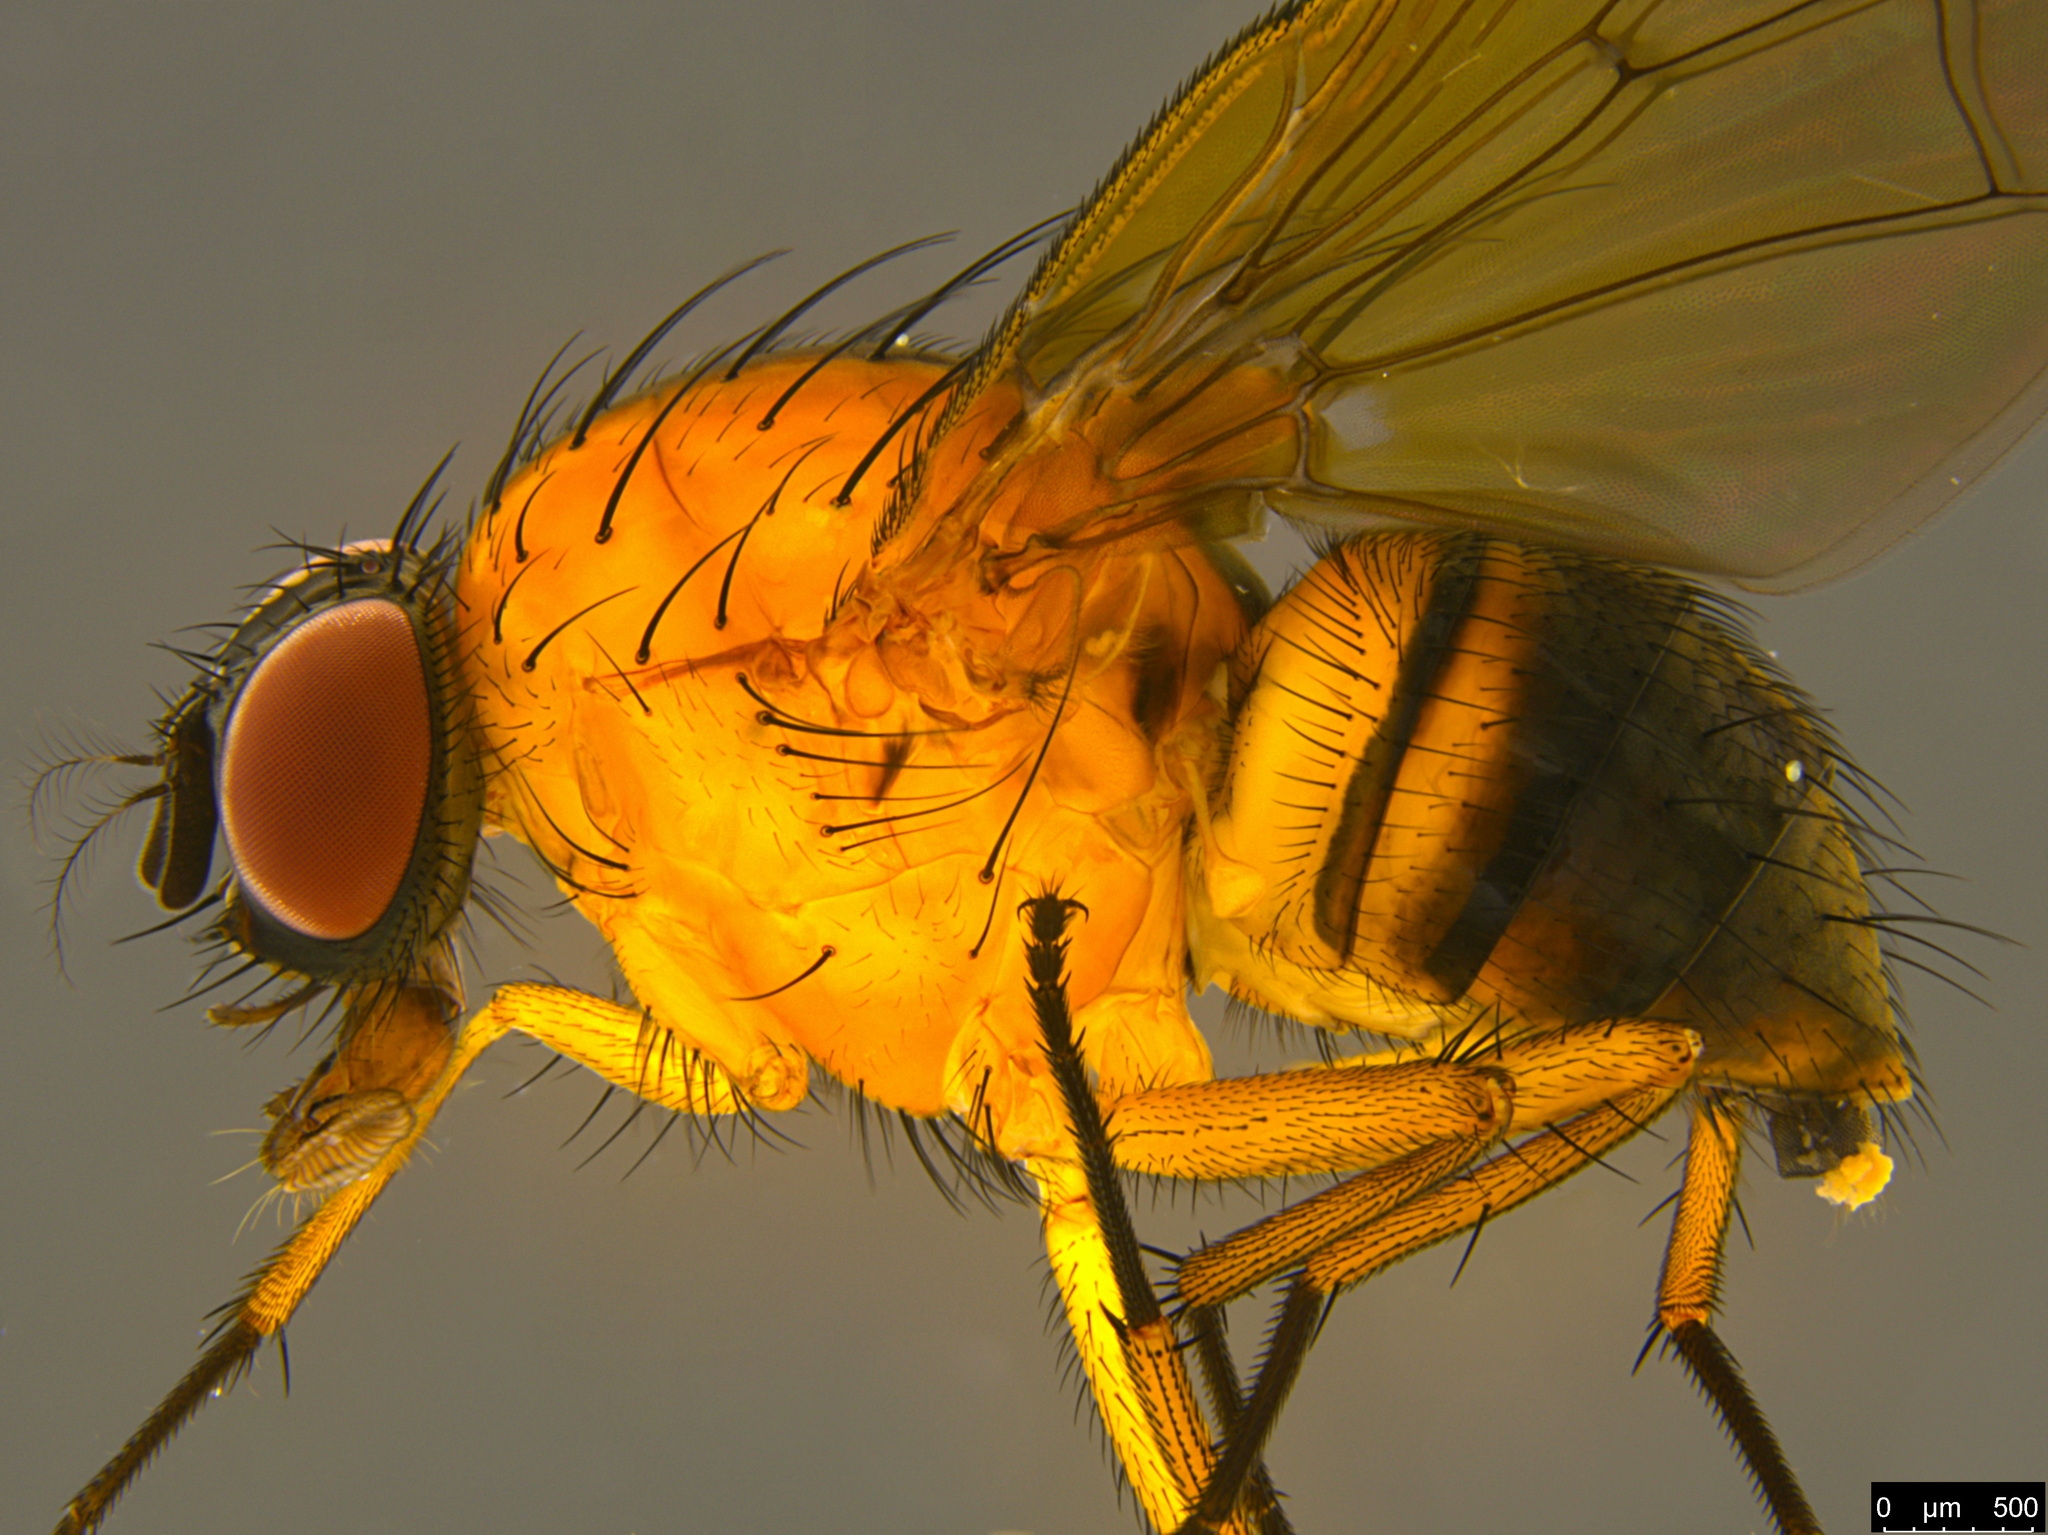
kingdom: Animalia
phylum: Arthropoda
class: Insecta
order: Diptera
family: Muscidae
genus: Helinomydaea
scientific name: Helinomydaea flavofusca
